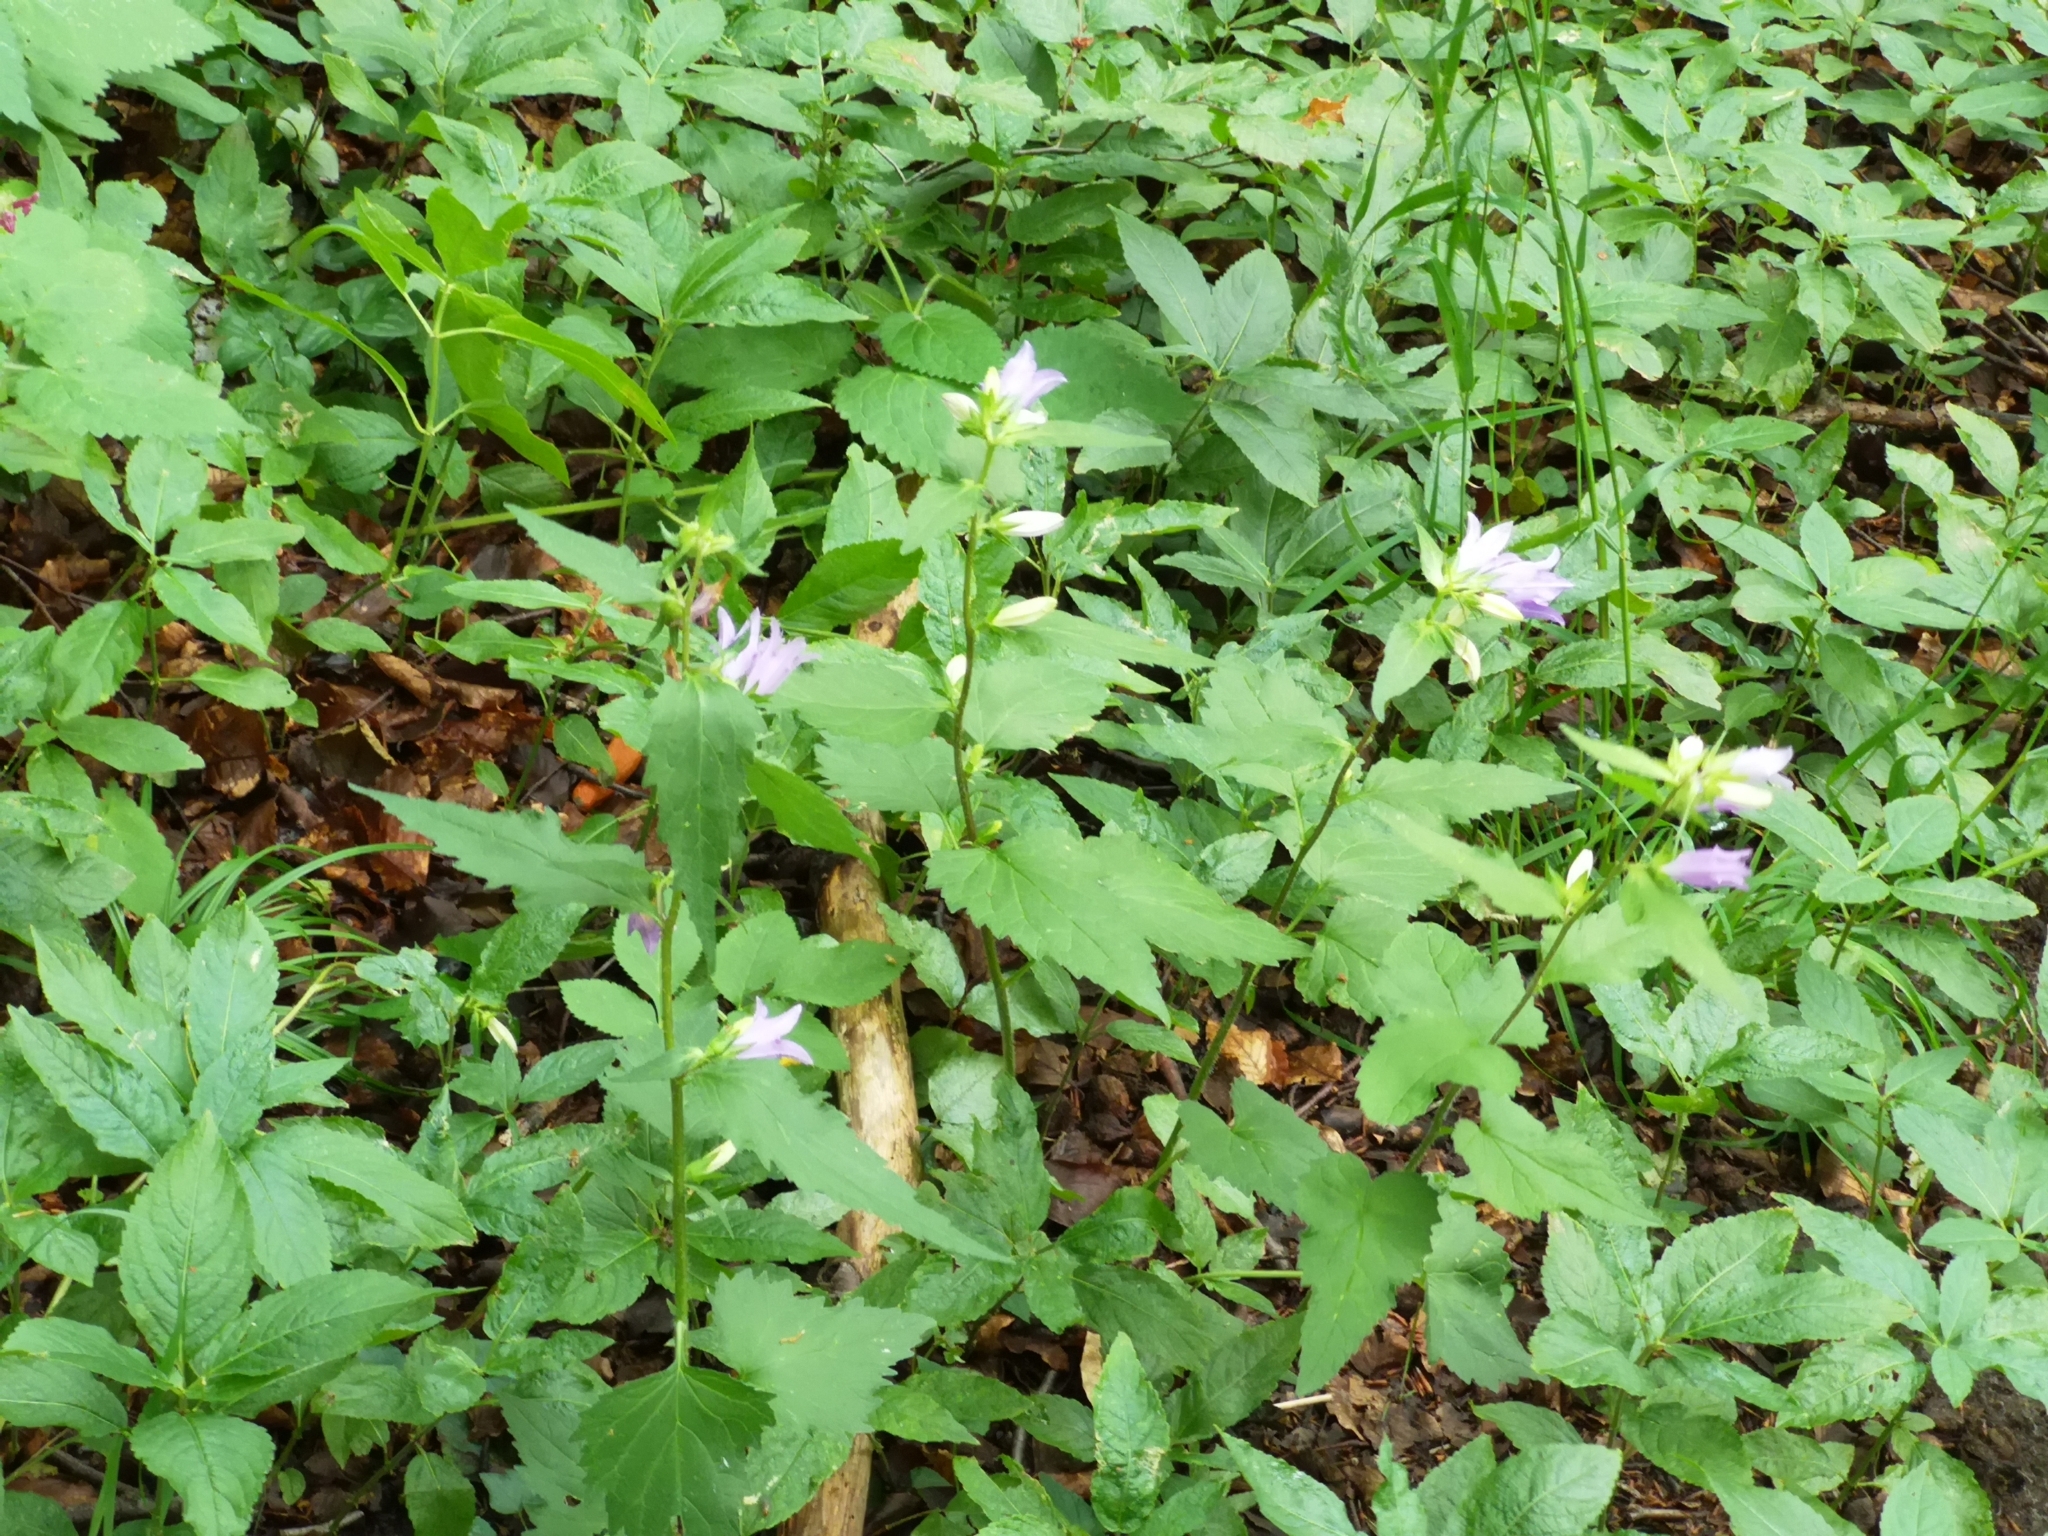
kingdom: Plantae
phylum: Tracheophyta
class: Magnoliopsida
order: Asterales
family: Campanulaceae
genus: Campanula
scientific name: Campanula trachelium
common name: Nettle-leaved bellflower
